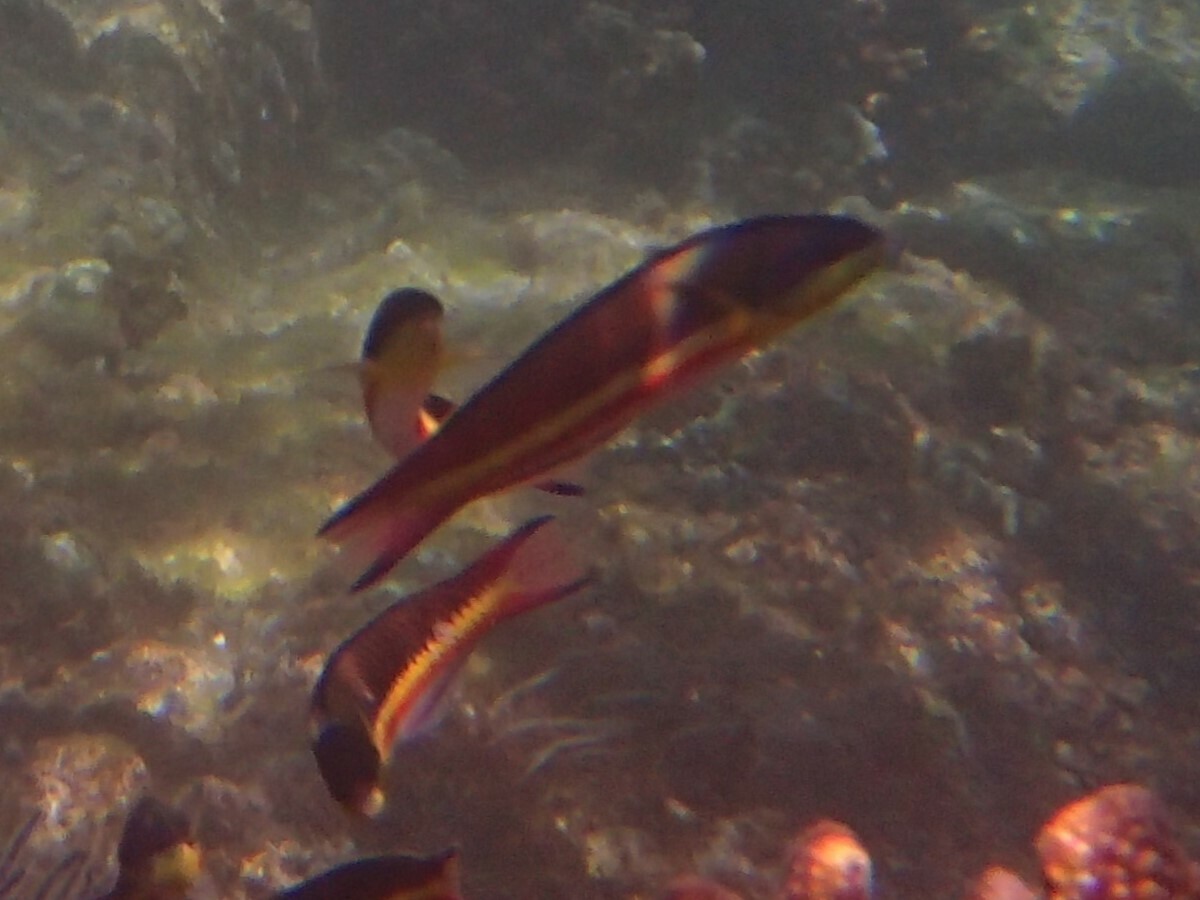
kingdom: Animalia
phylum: Chordata
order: Perciformes
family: Labridae
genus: Thalassoma
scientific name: Thalassoma lucasanum
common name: Cortez rainbow wrasse
